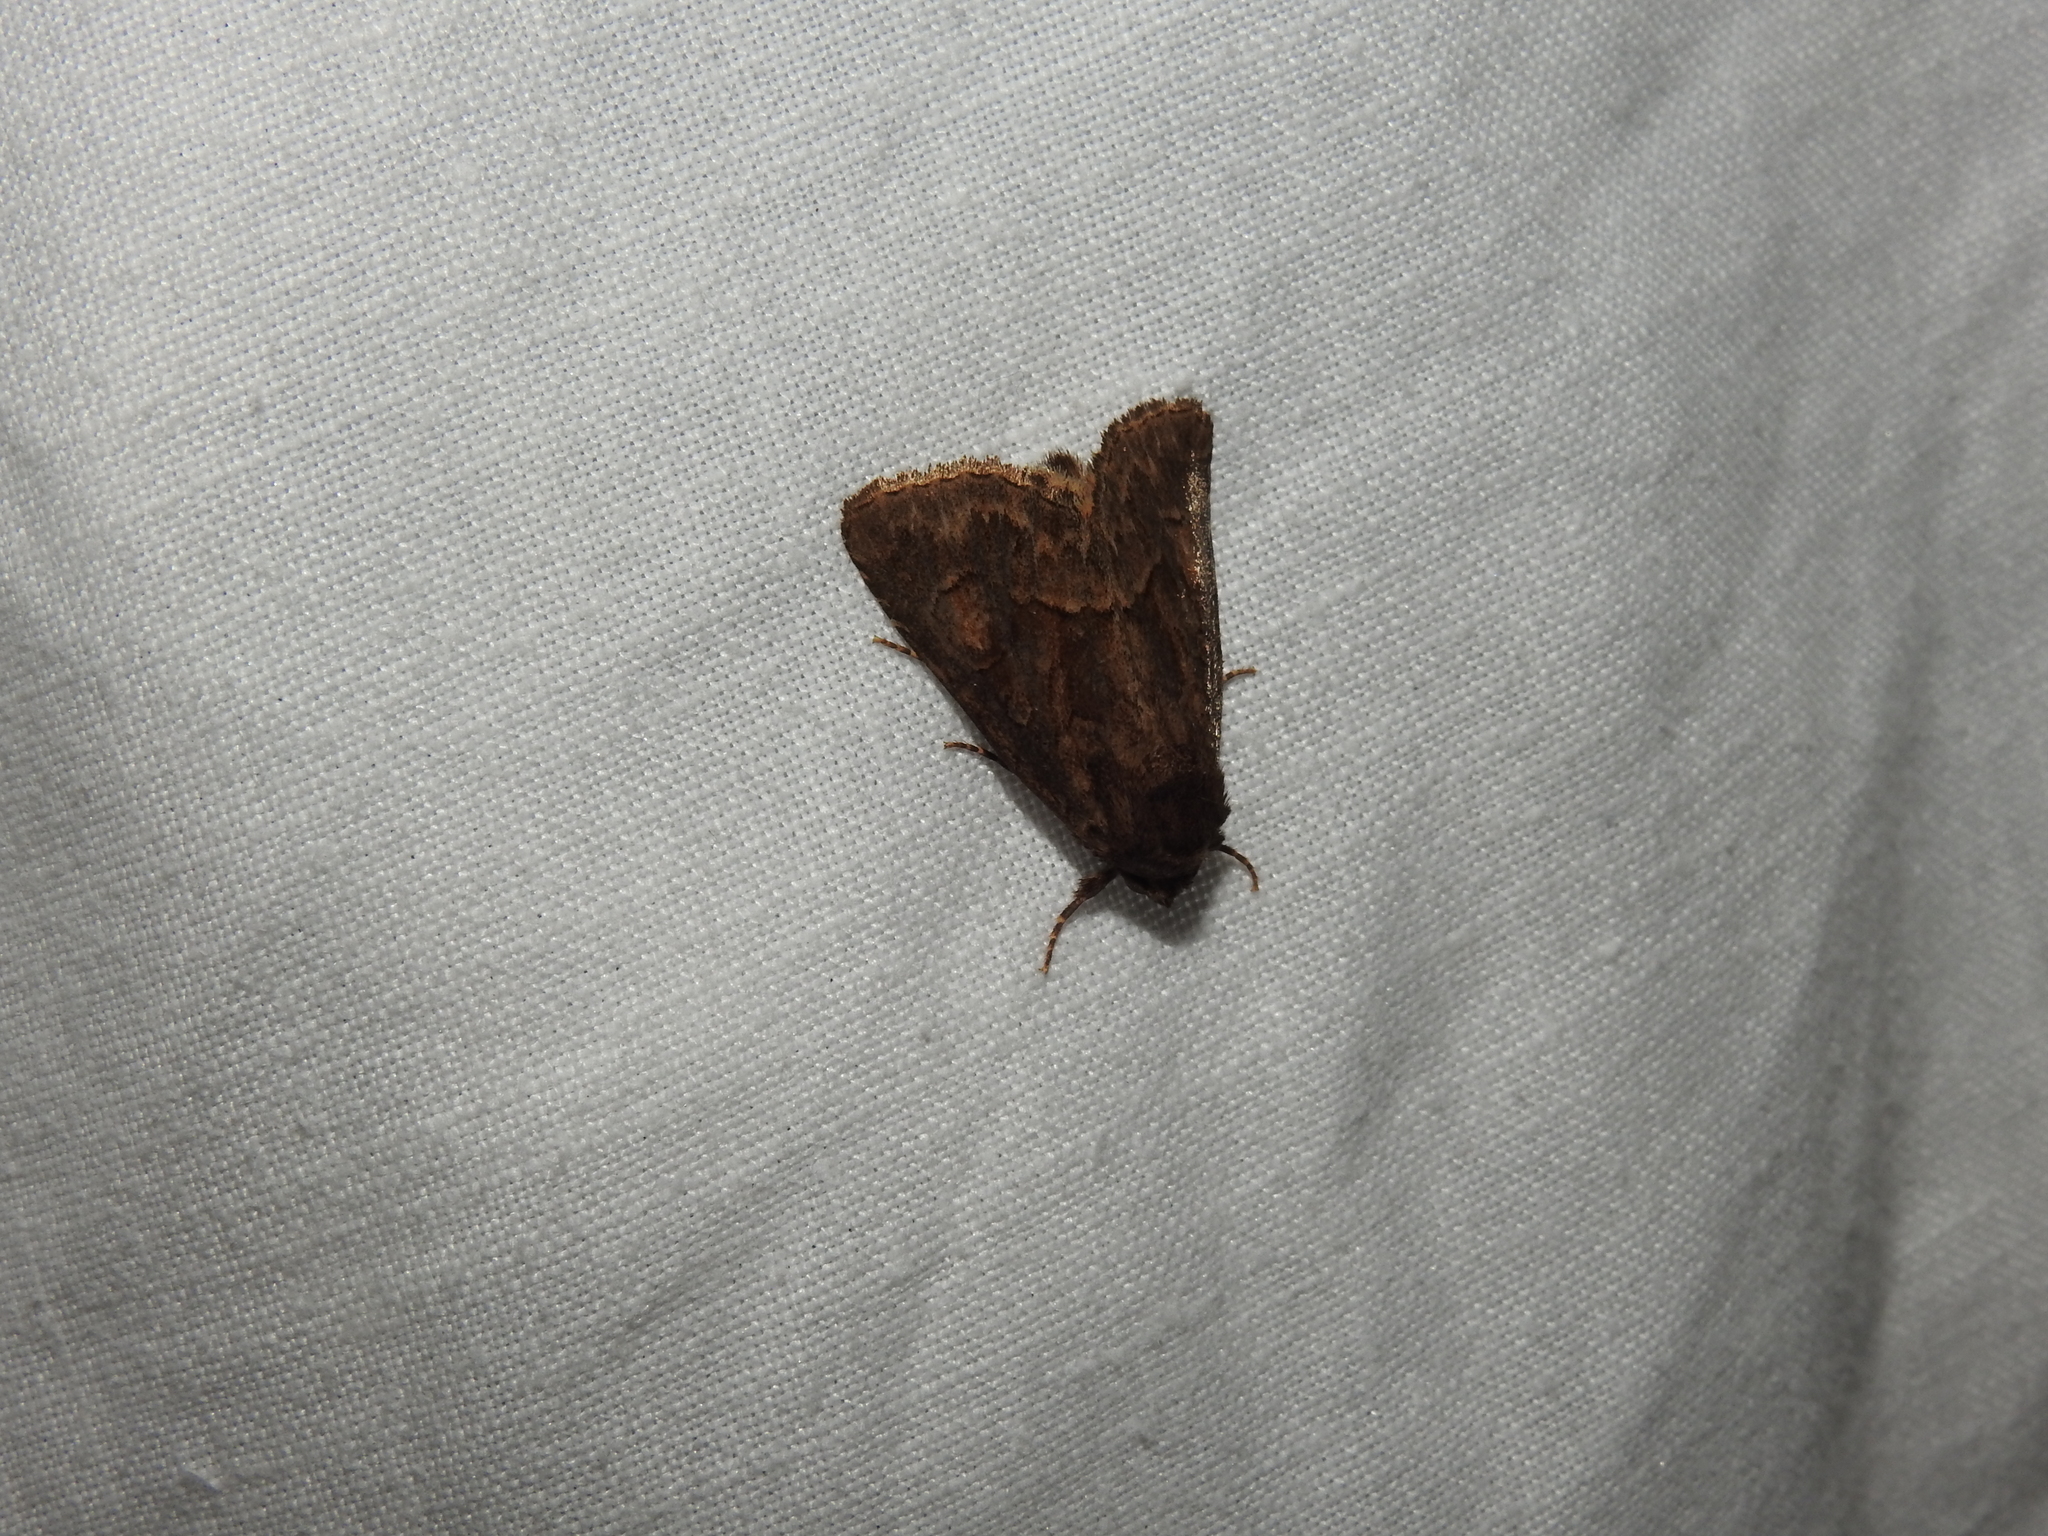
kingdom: Animalia
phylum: Arthropoda
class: Insecta
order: Lepidoptera
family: Noctuidae
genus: Thalpophila
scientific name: Thalpophila matura
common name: Straw underwing
